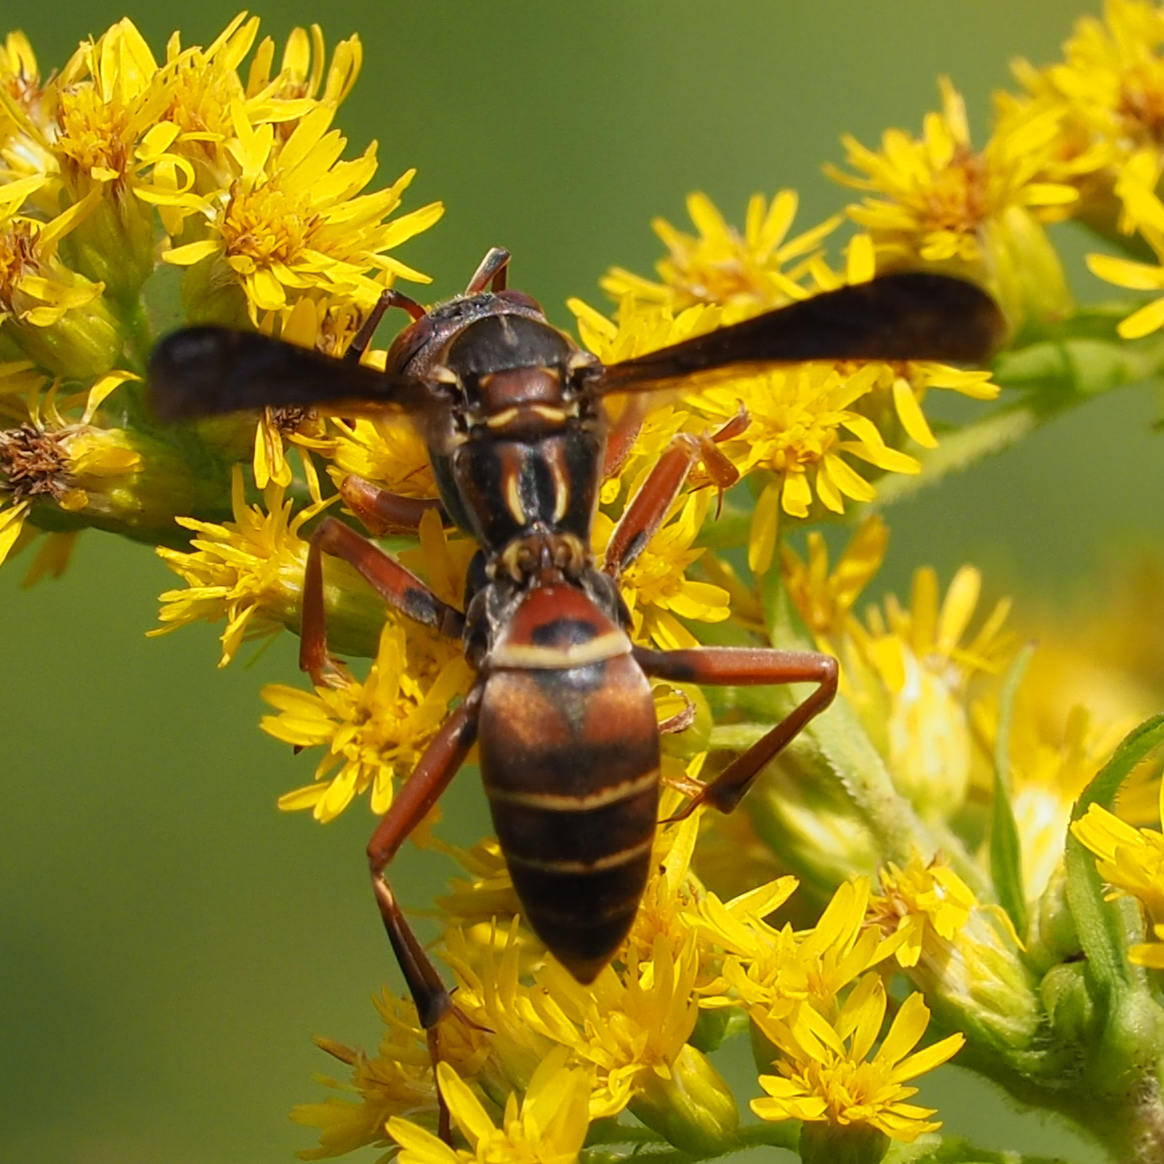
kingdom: Animalia
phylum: Arthropoda
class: Insecta
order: Hymenoptera
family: Eumenidae
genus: Polistes
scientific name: Polistes fuscatus
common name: Dark paper wasp
